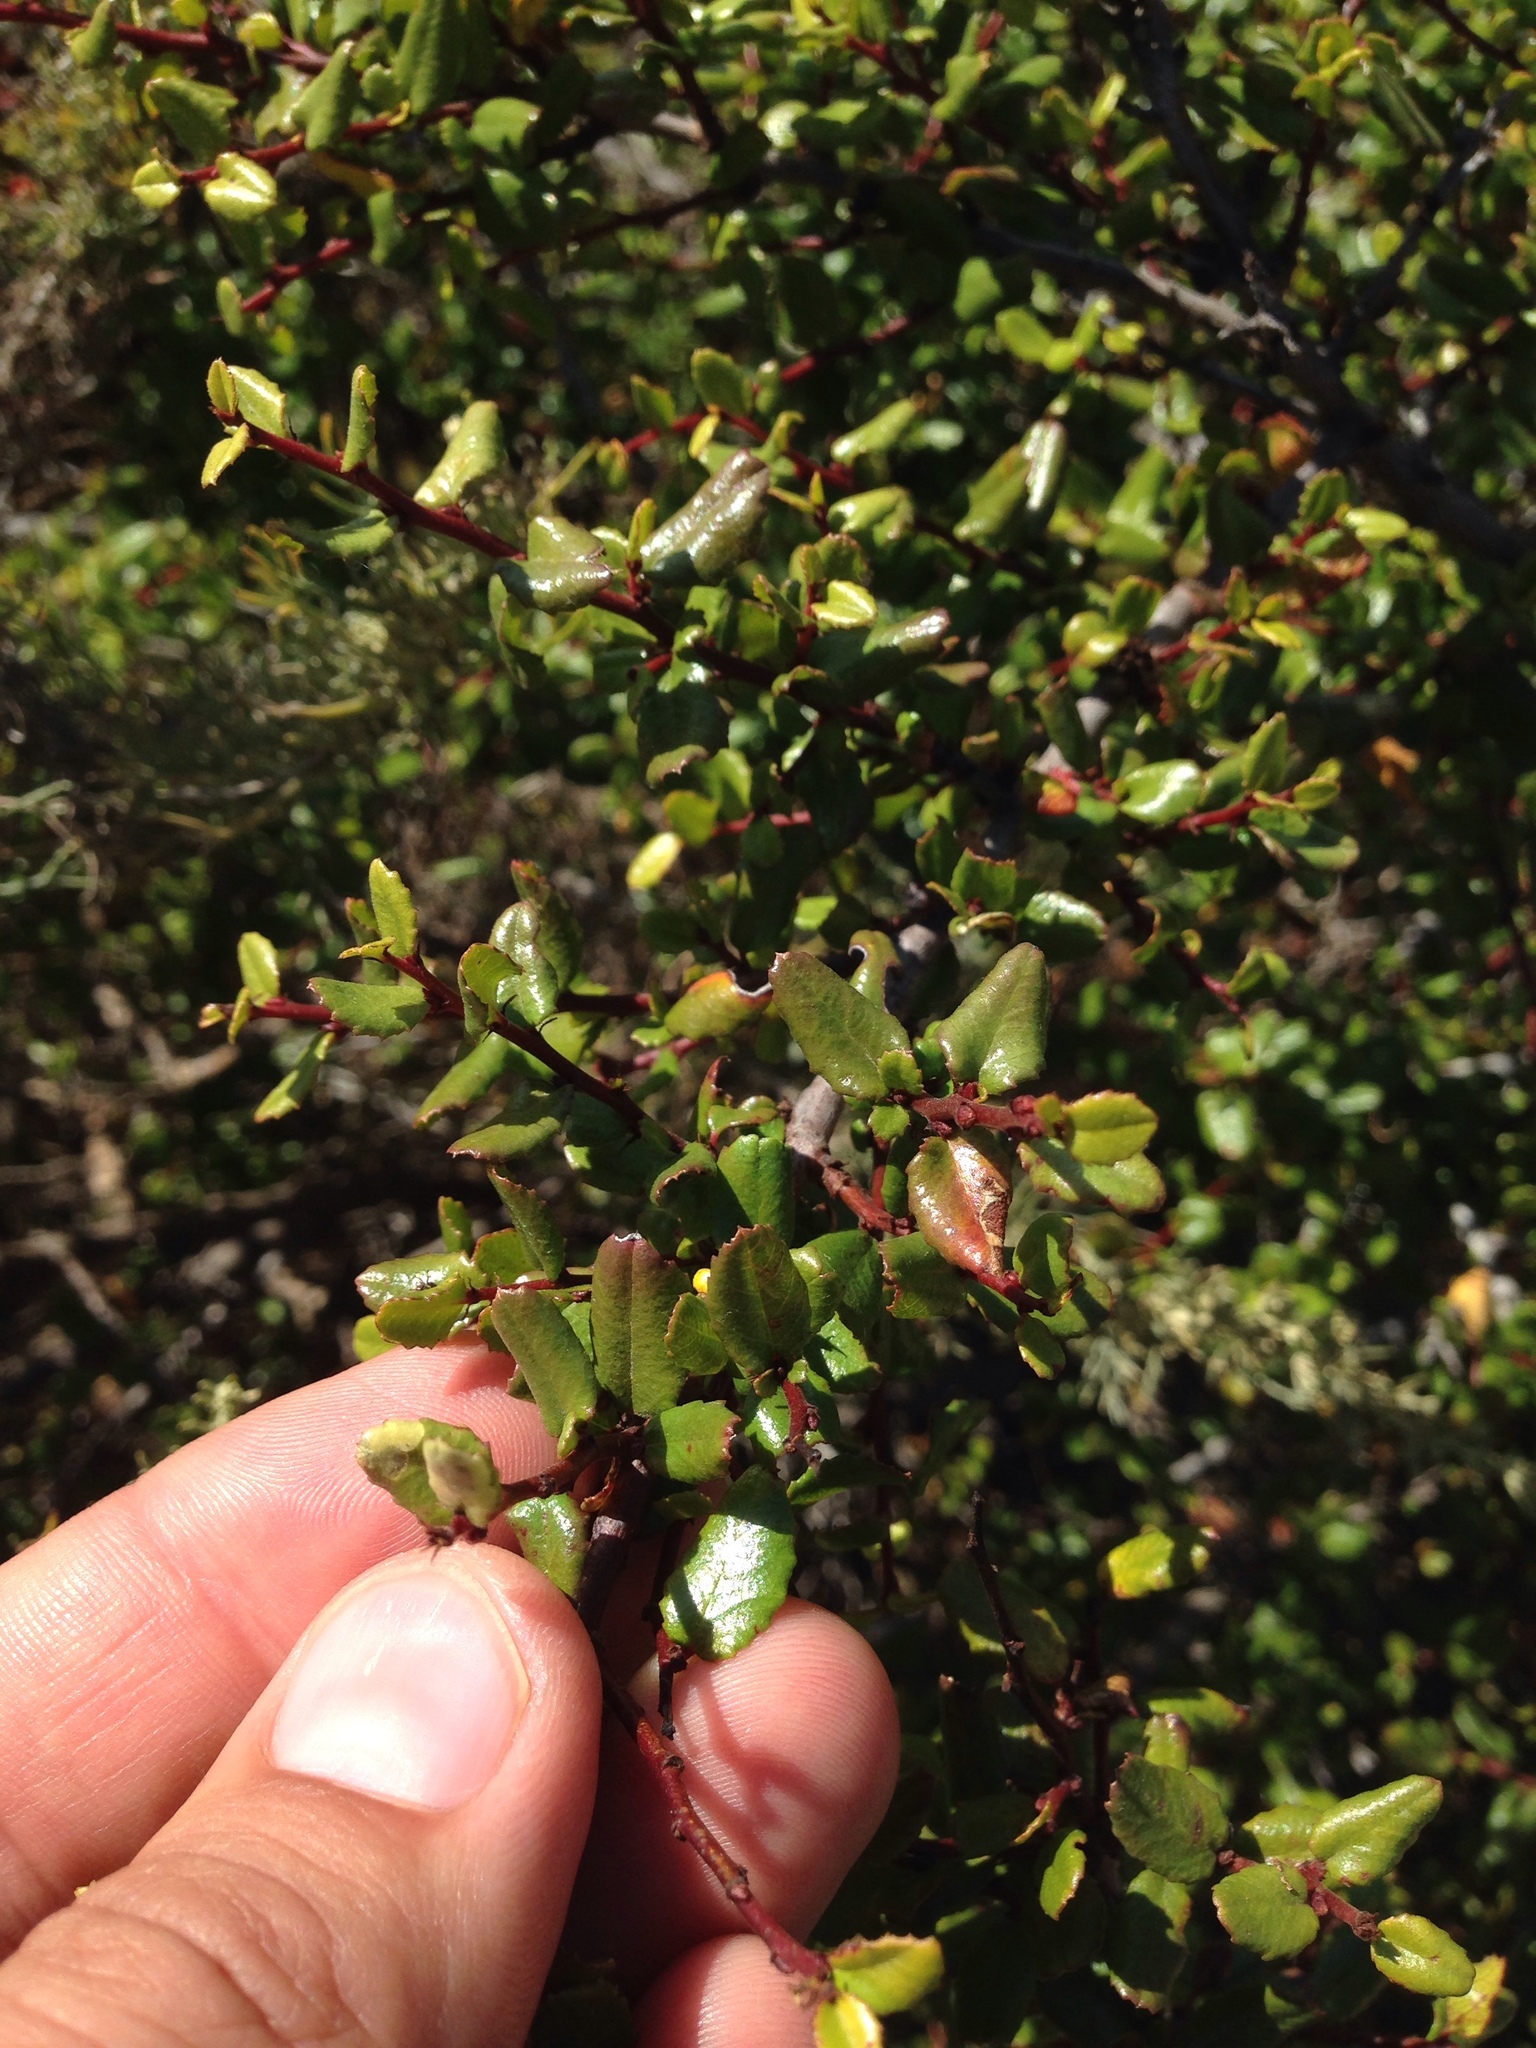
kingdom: Plantae
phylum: Tracheophyta
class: Magnoliopsida
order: Rosales
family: Rhamnaceae
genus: Endotropis
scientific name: Endotropis crocea
